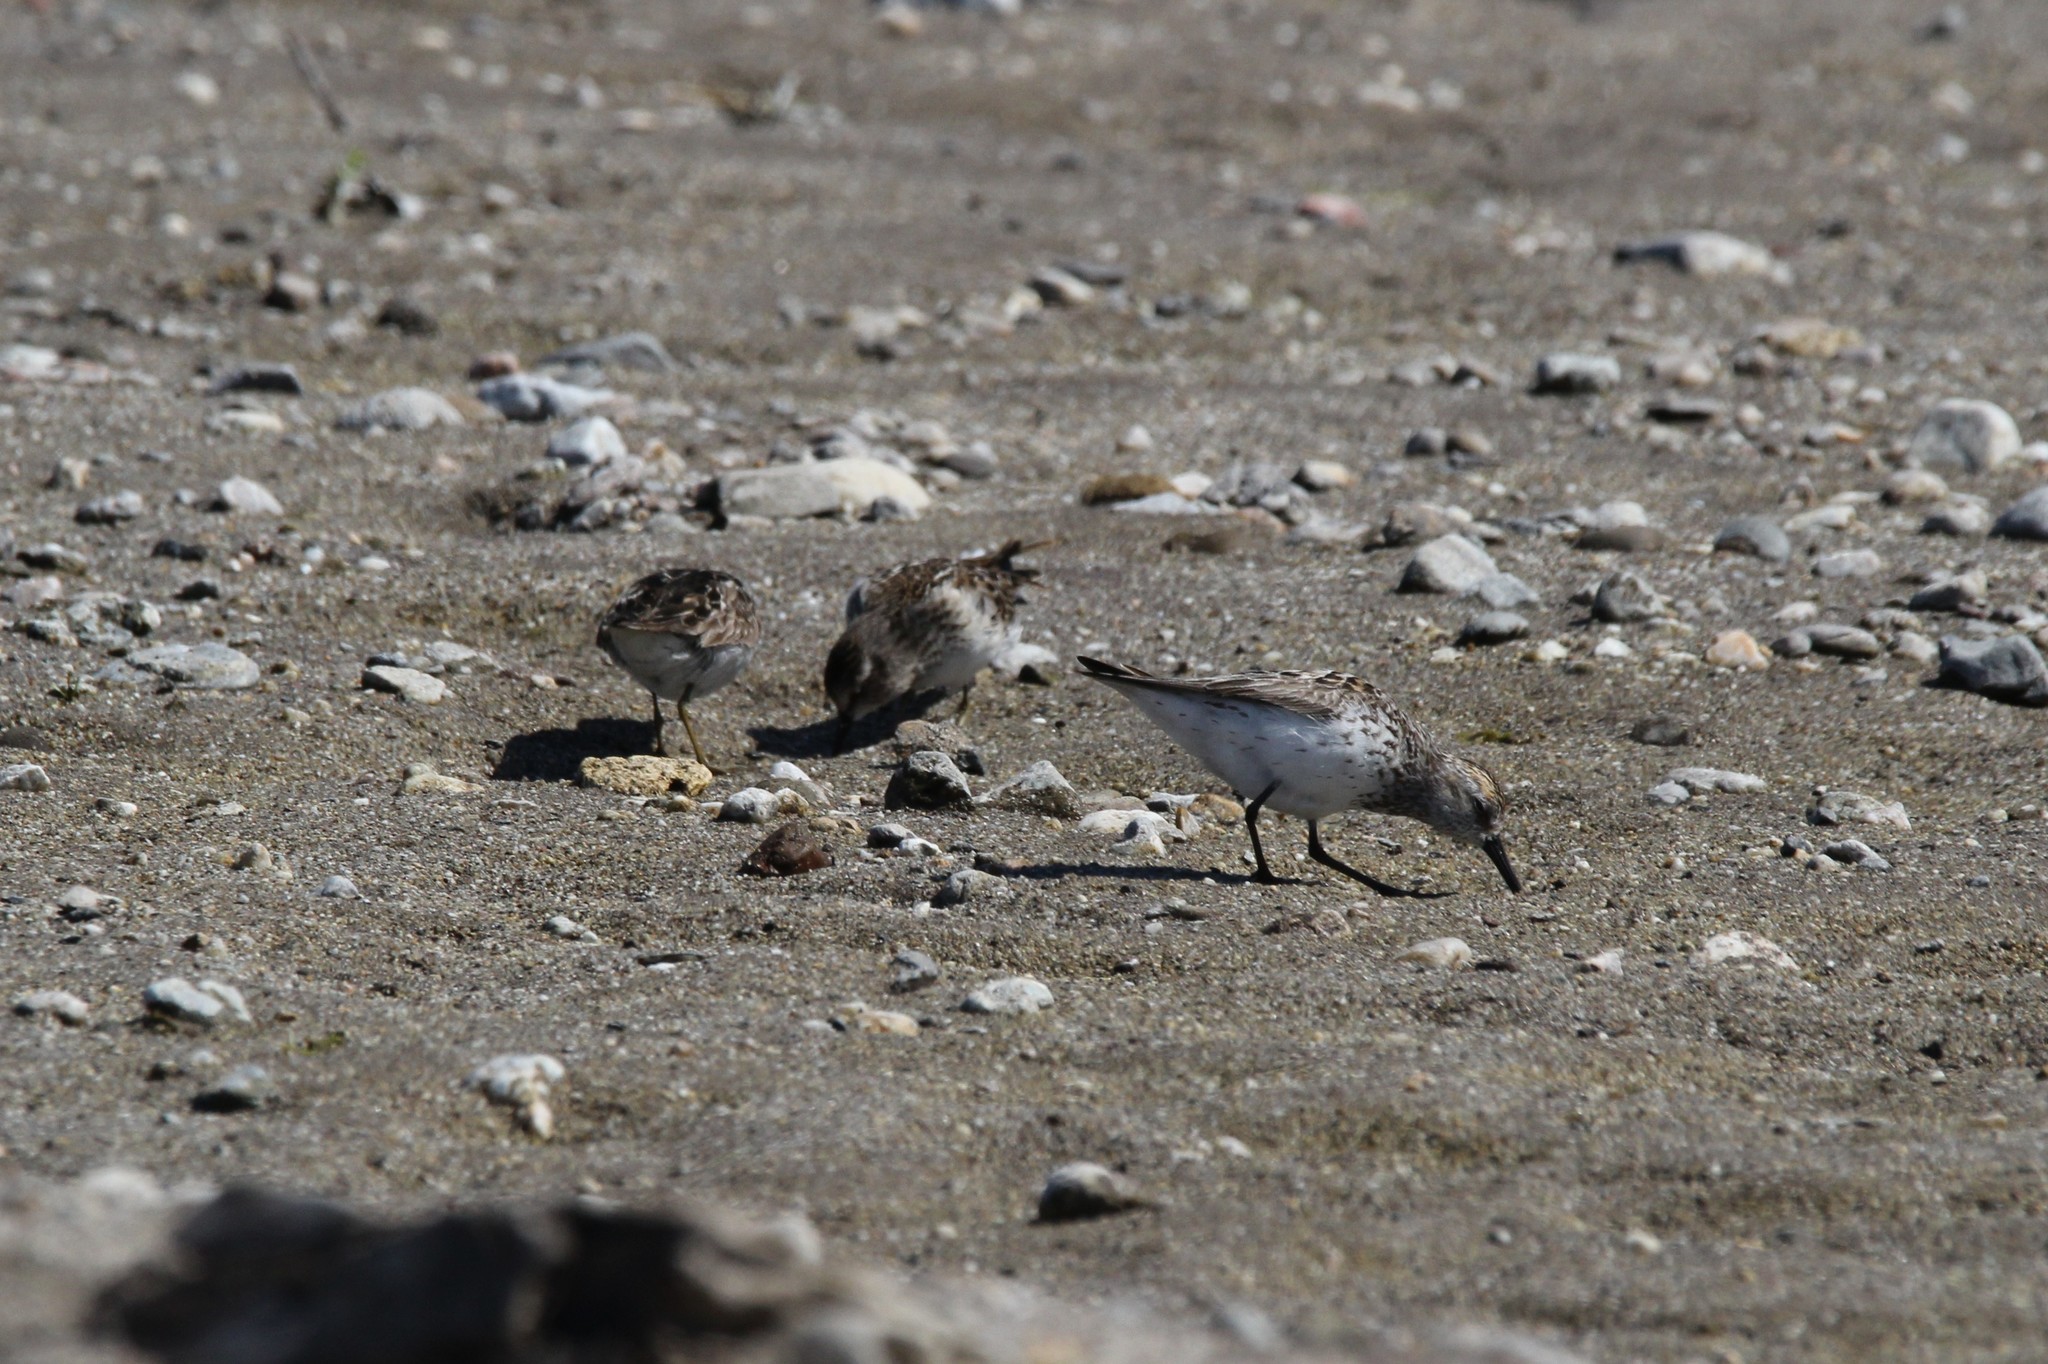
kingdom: Animalia
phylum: Chordata
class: Aves
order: Charadriiformes
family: Scolopacidae
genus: Calidris
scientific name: Calidris minutilla
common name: Least sandpiper
